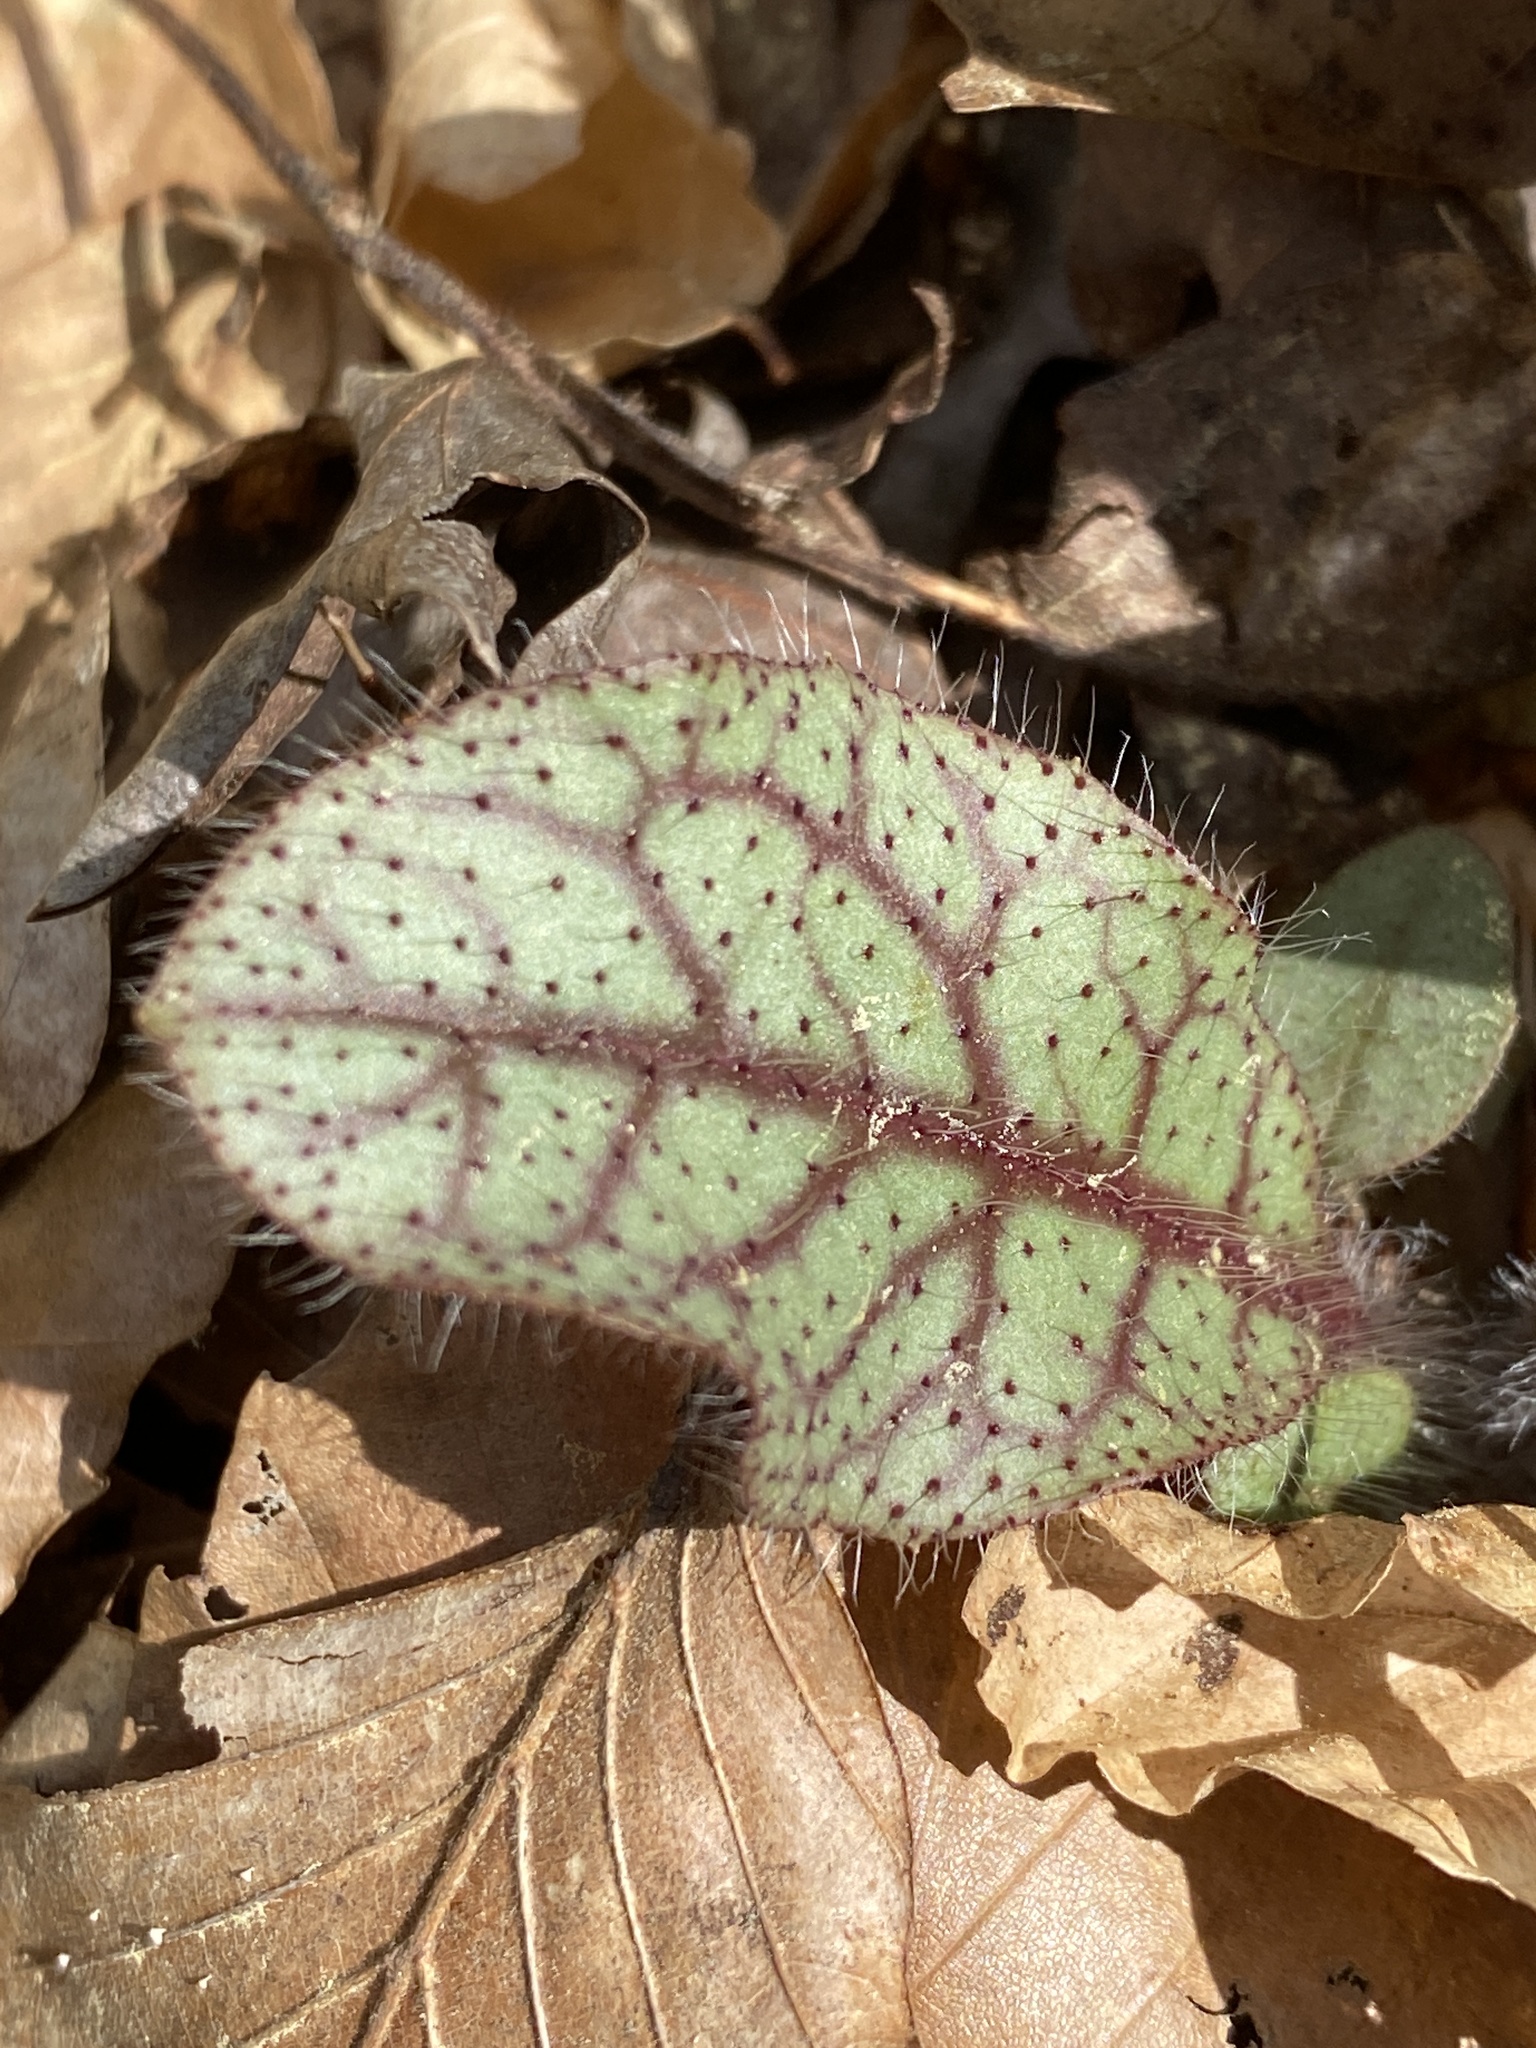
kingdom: Plantae
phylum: Tracheophyta
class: Magnoliopsida
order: Asterales
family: Asteraceae
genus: Hieracium
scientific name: Hieracium venosum
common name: Rattlesnake hawkweed
